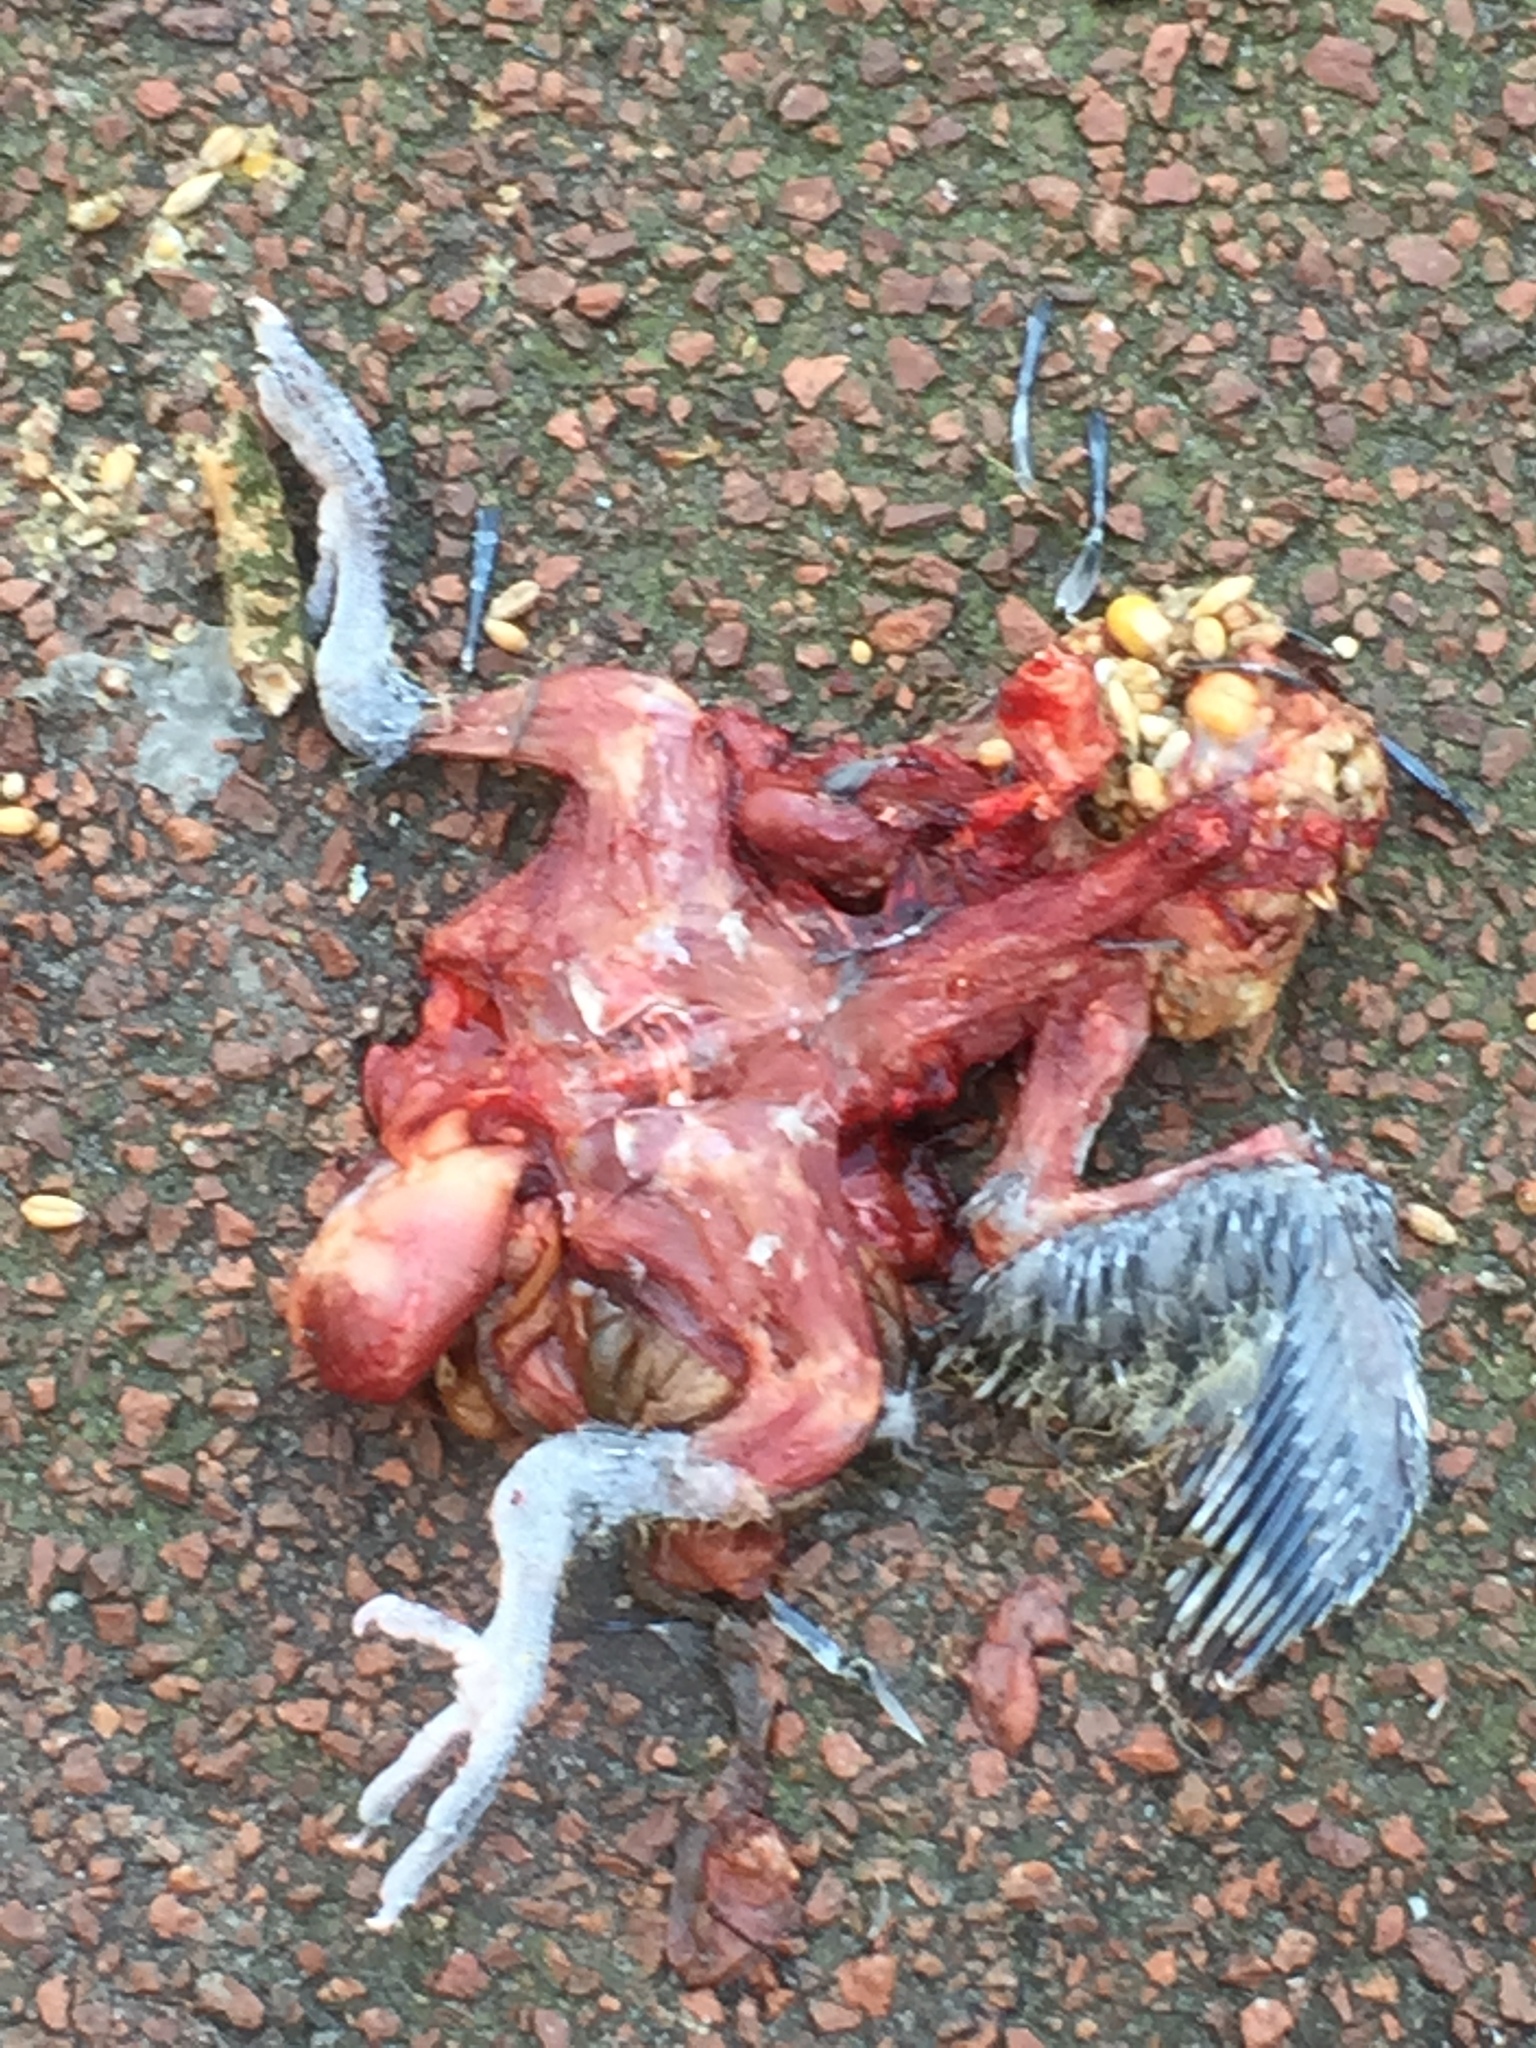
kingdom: Animalia
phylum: Chordata
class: Aves
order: Columbiformes
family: Columbidae
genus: Columba
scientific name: Columba palumbus
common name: Common wood pigeon
